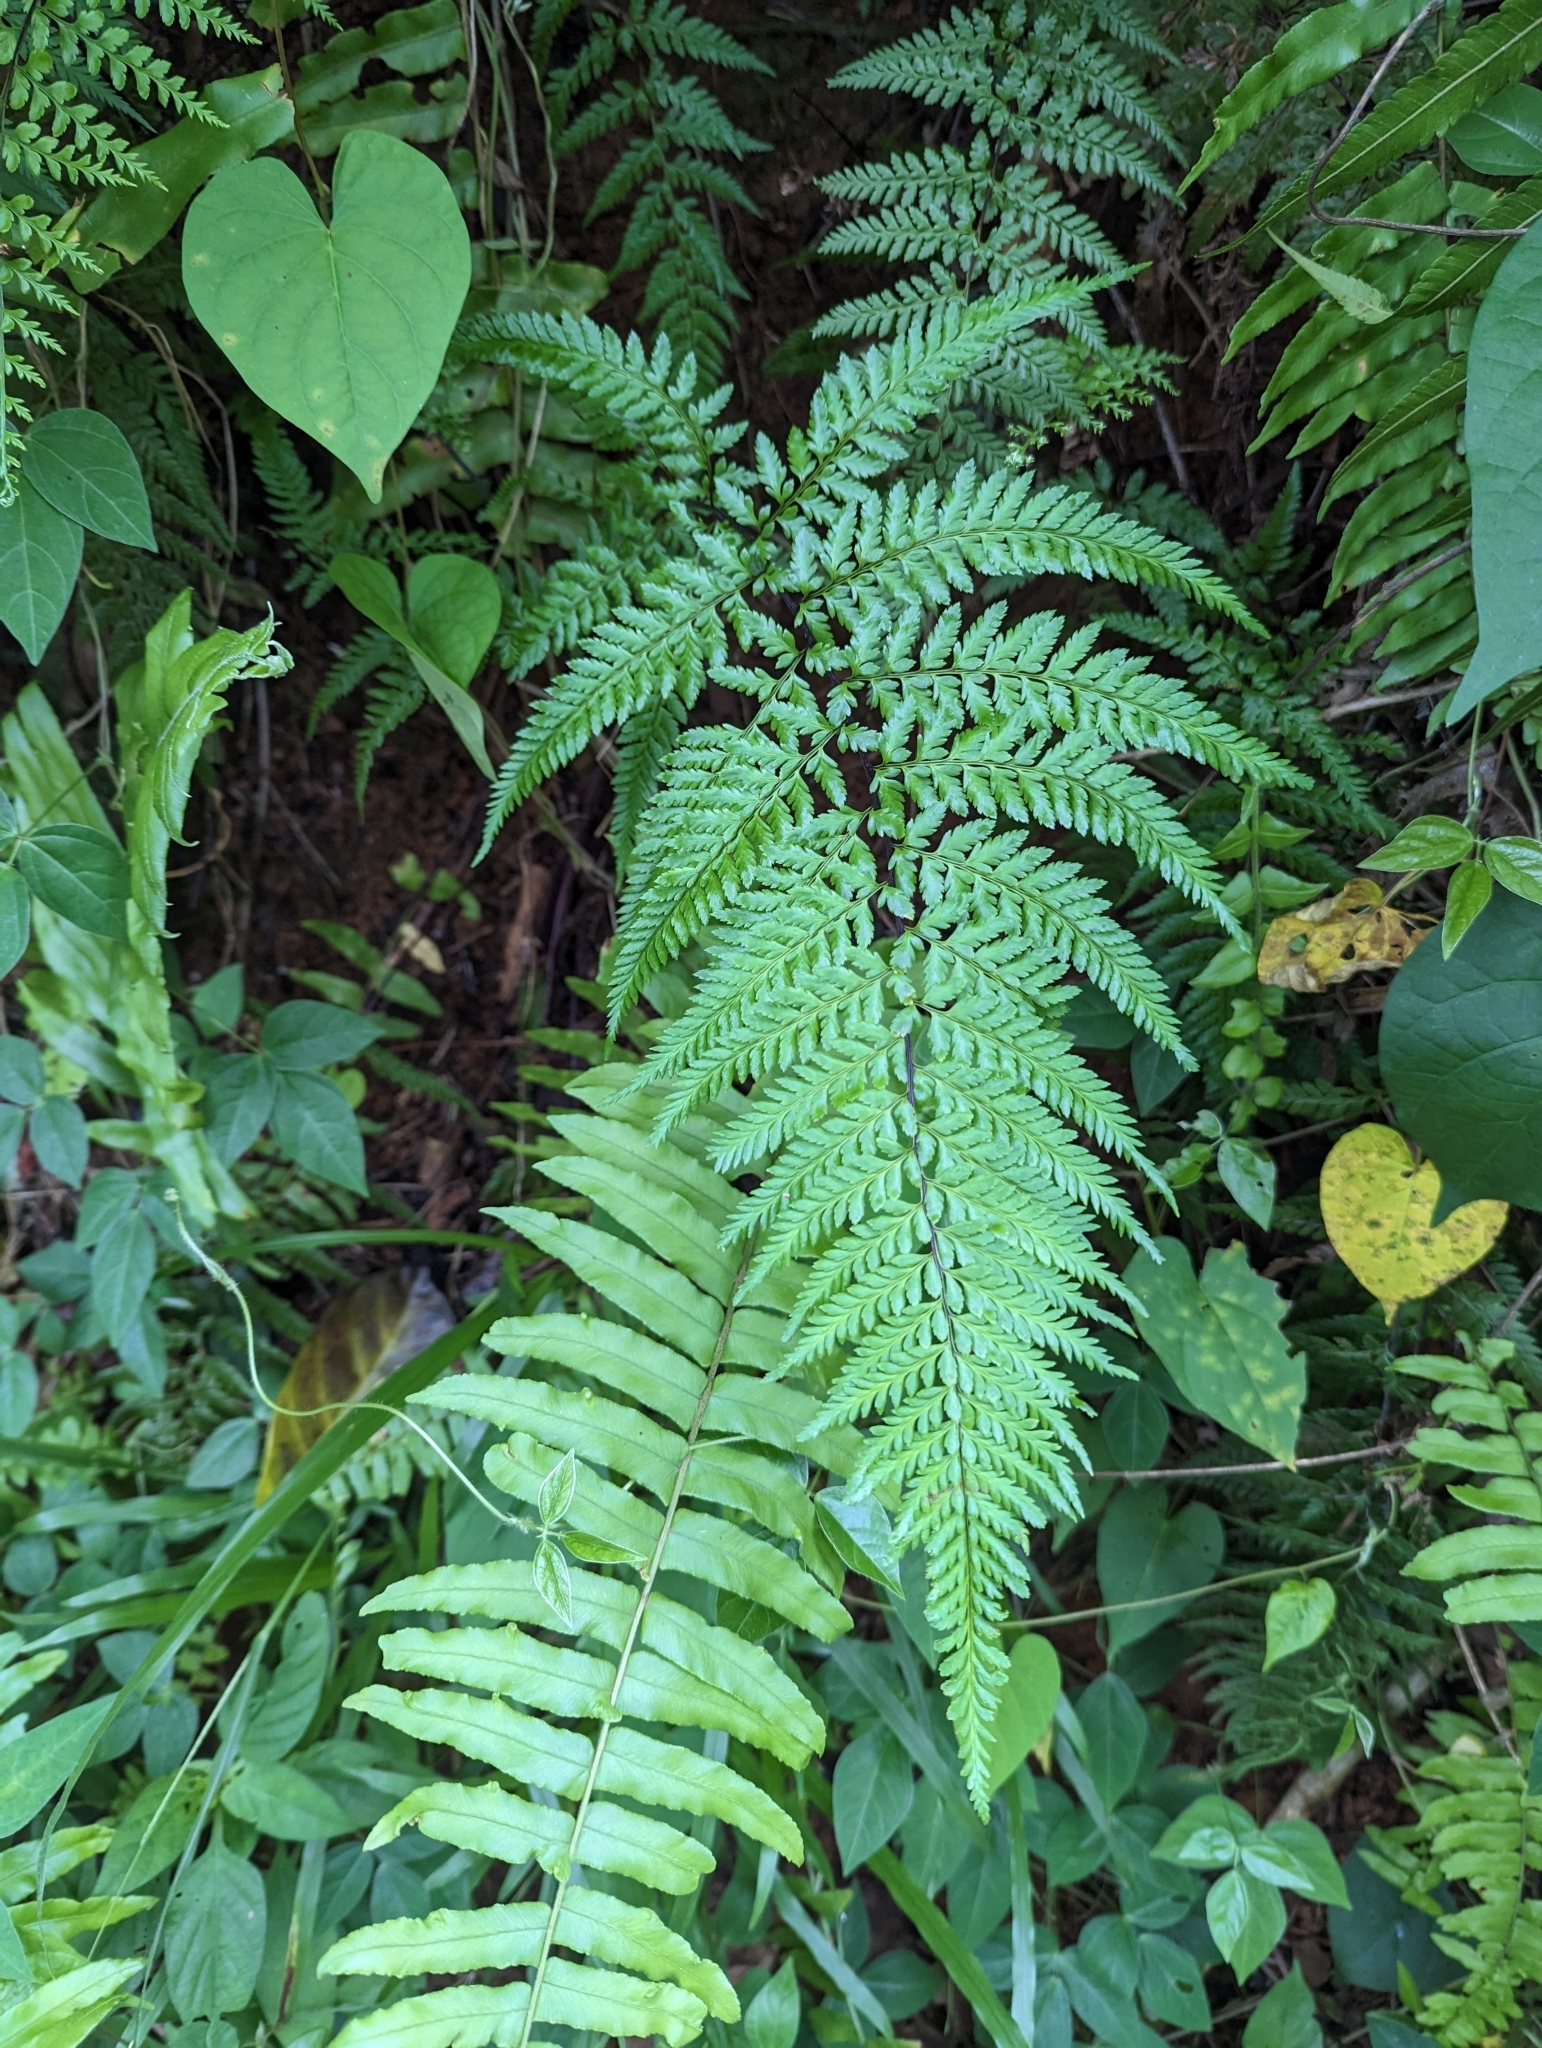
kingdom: Plantae
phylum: Tracheophyta
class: Polypodiopsida
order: Polypodiales
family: Pteridaceae
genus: Pityrogramma
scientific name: Pityrogramma calomelanos
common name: Dixie silverback fern
